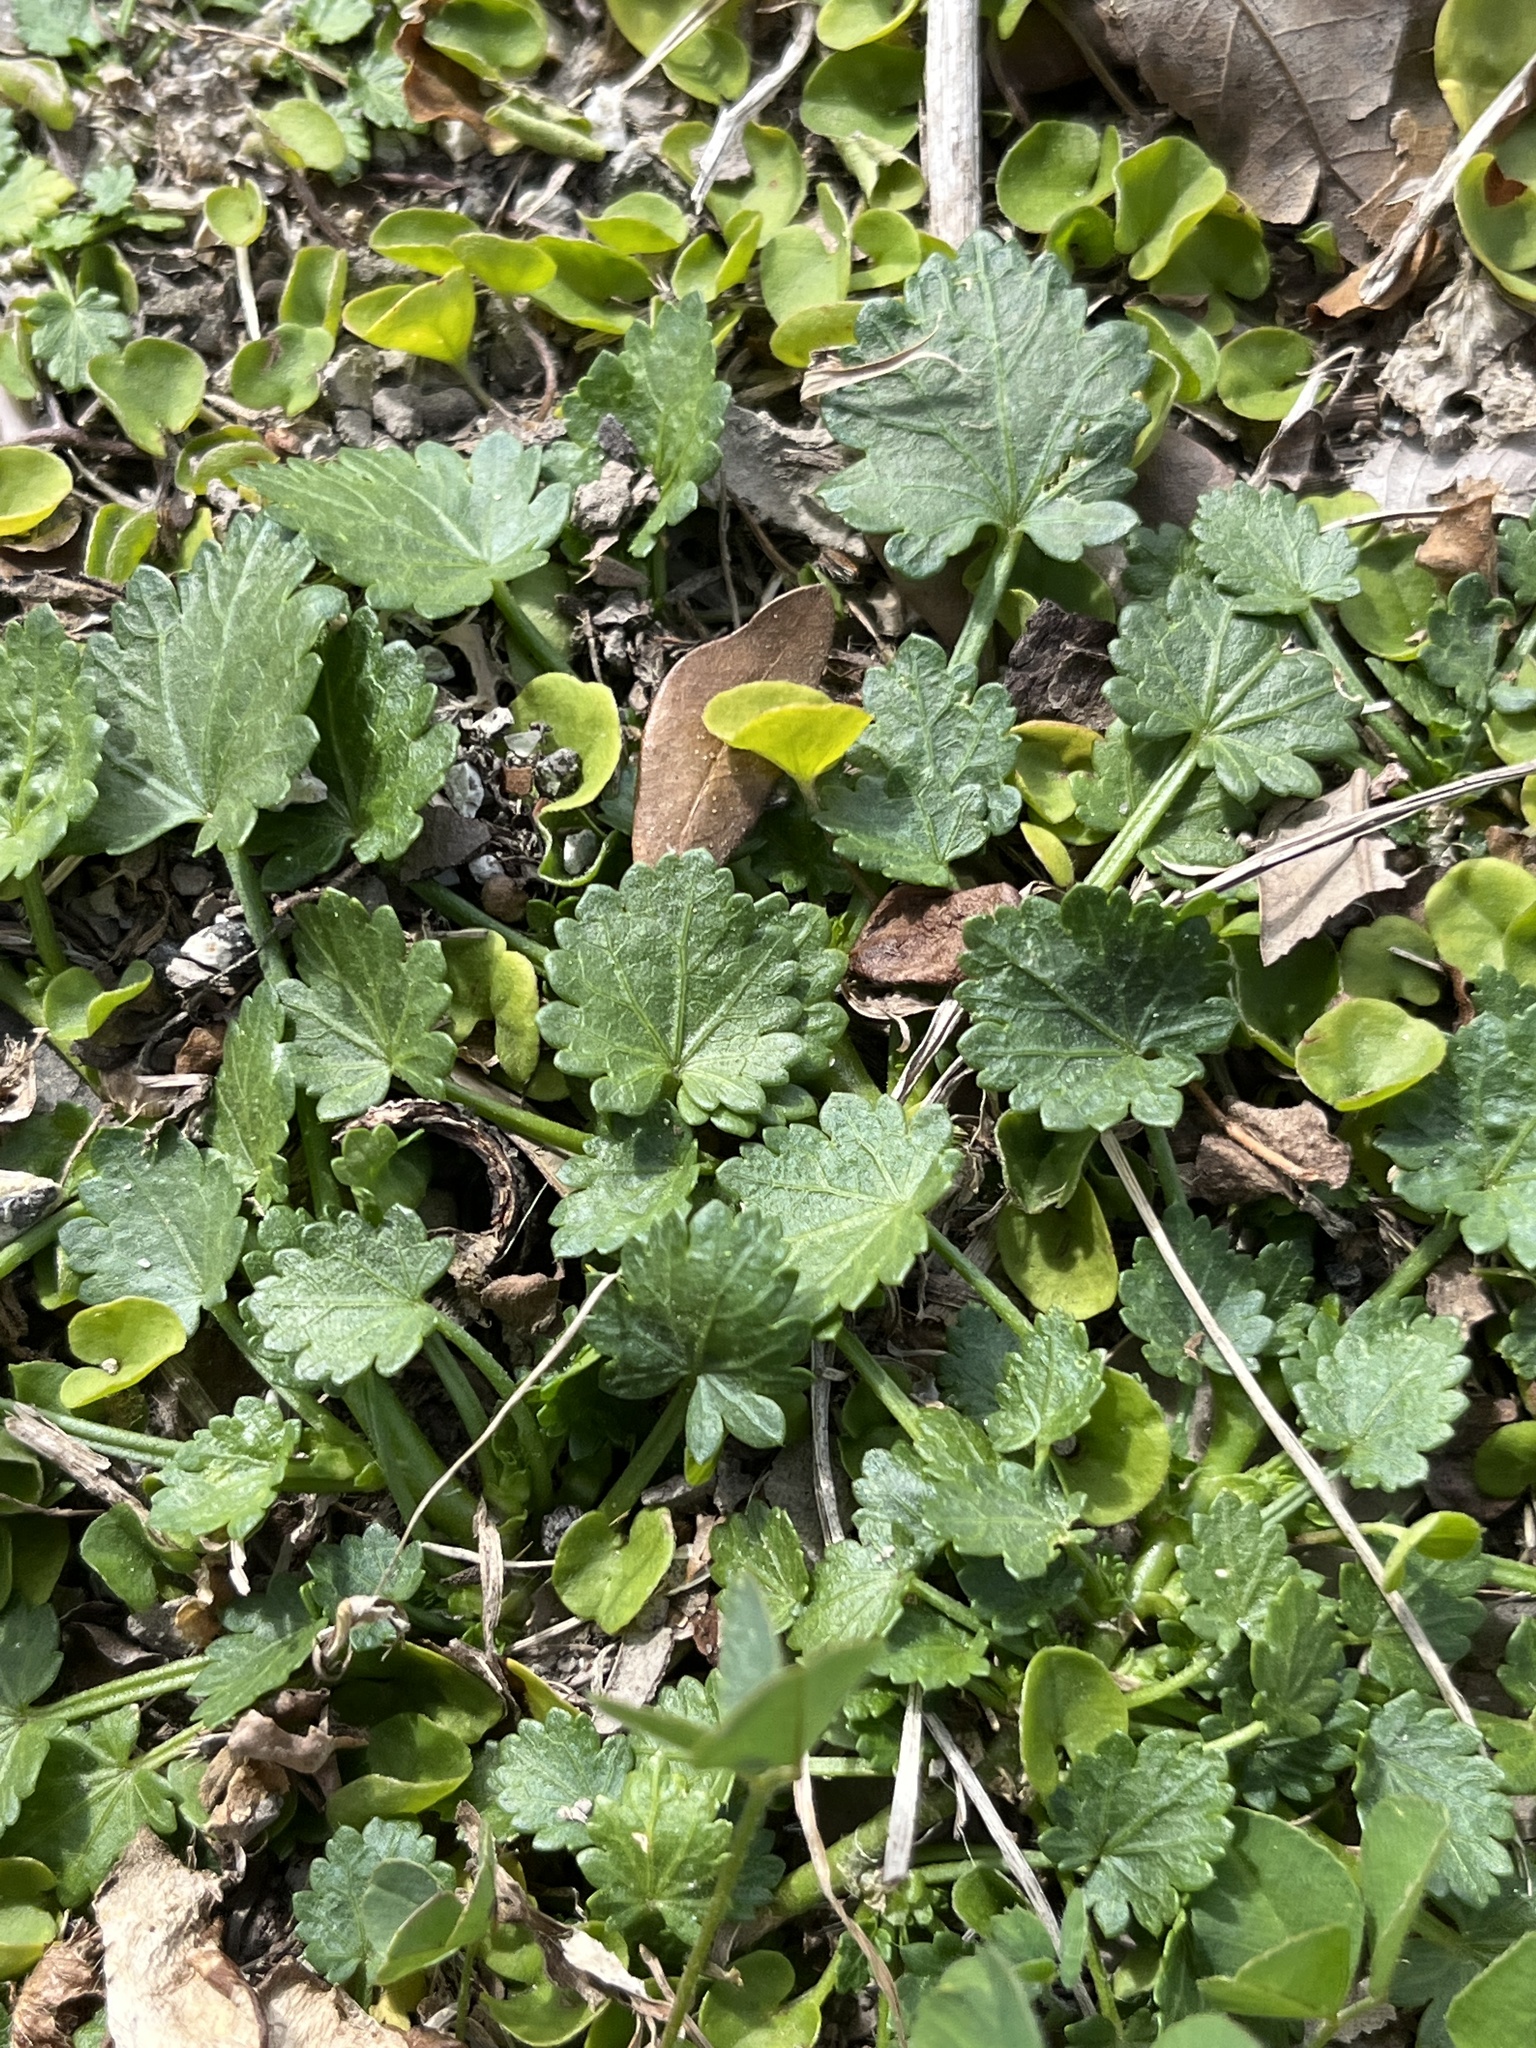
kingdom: Plantae
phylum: Tracheophyta
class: Magnoliopsida
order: Malvales
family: Malvaceae
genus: Modiola
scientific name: Modiola caroliniana
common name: Carolina bristlemallow
